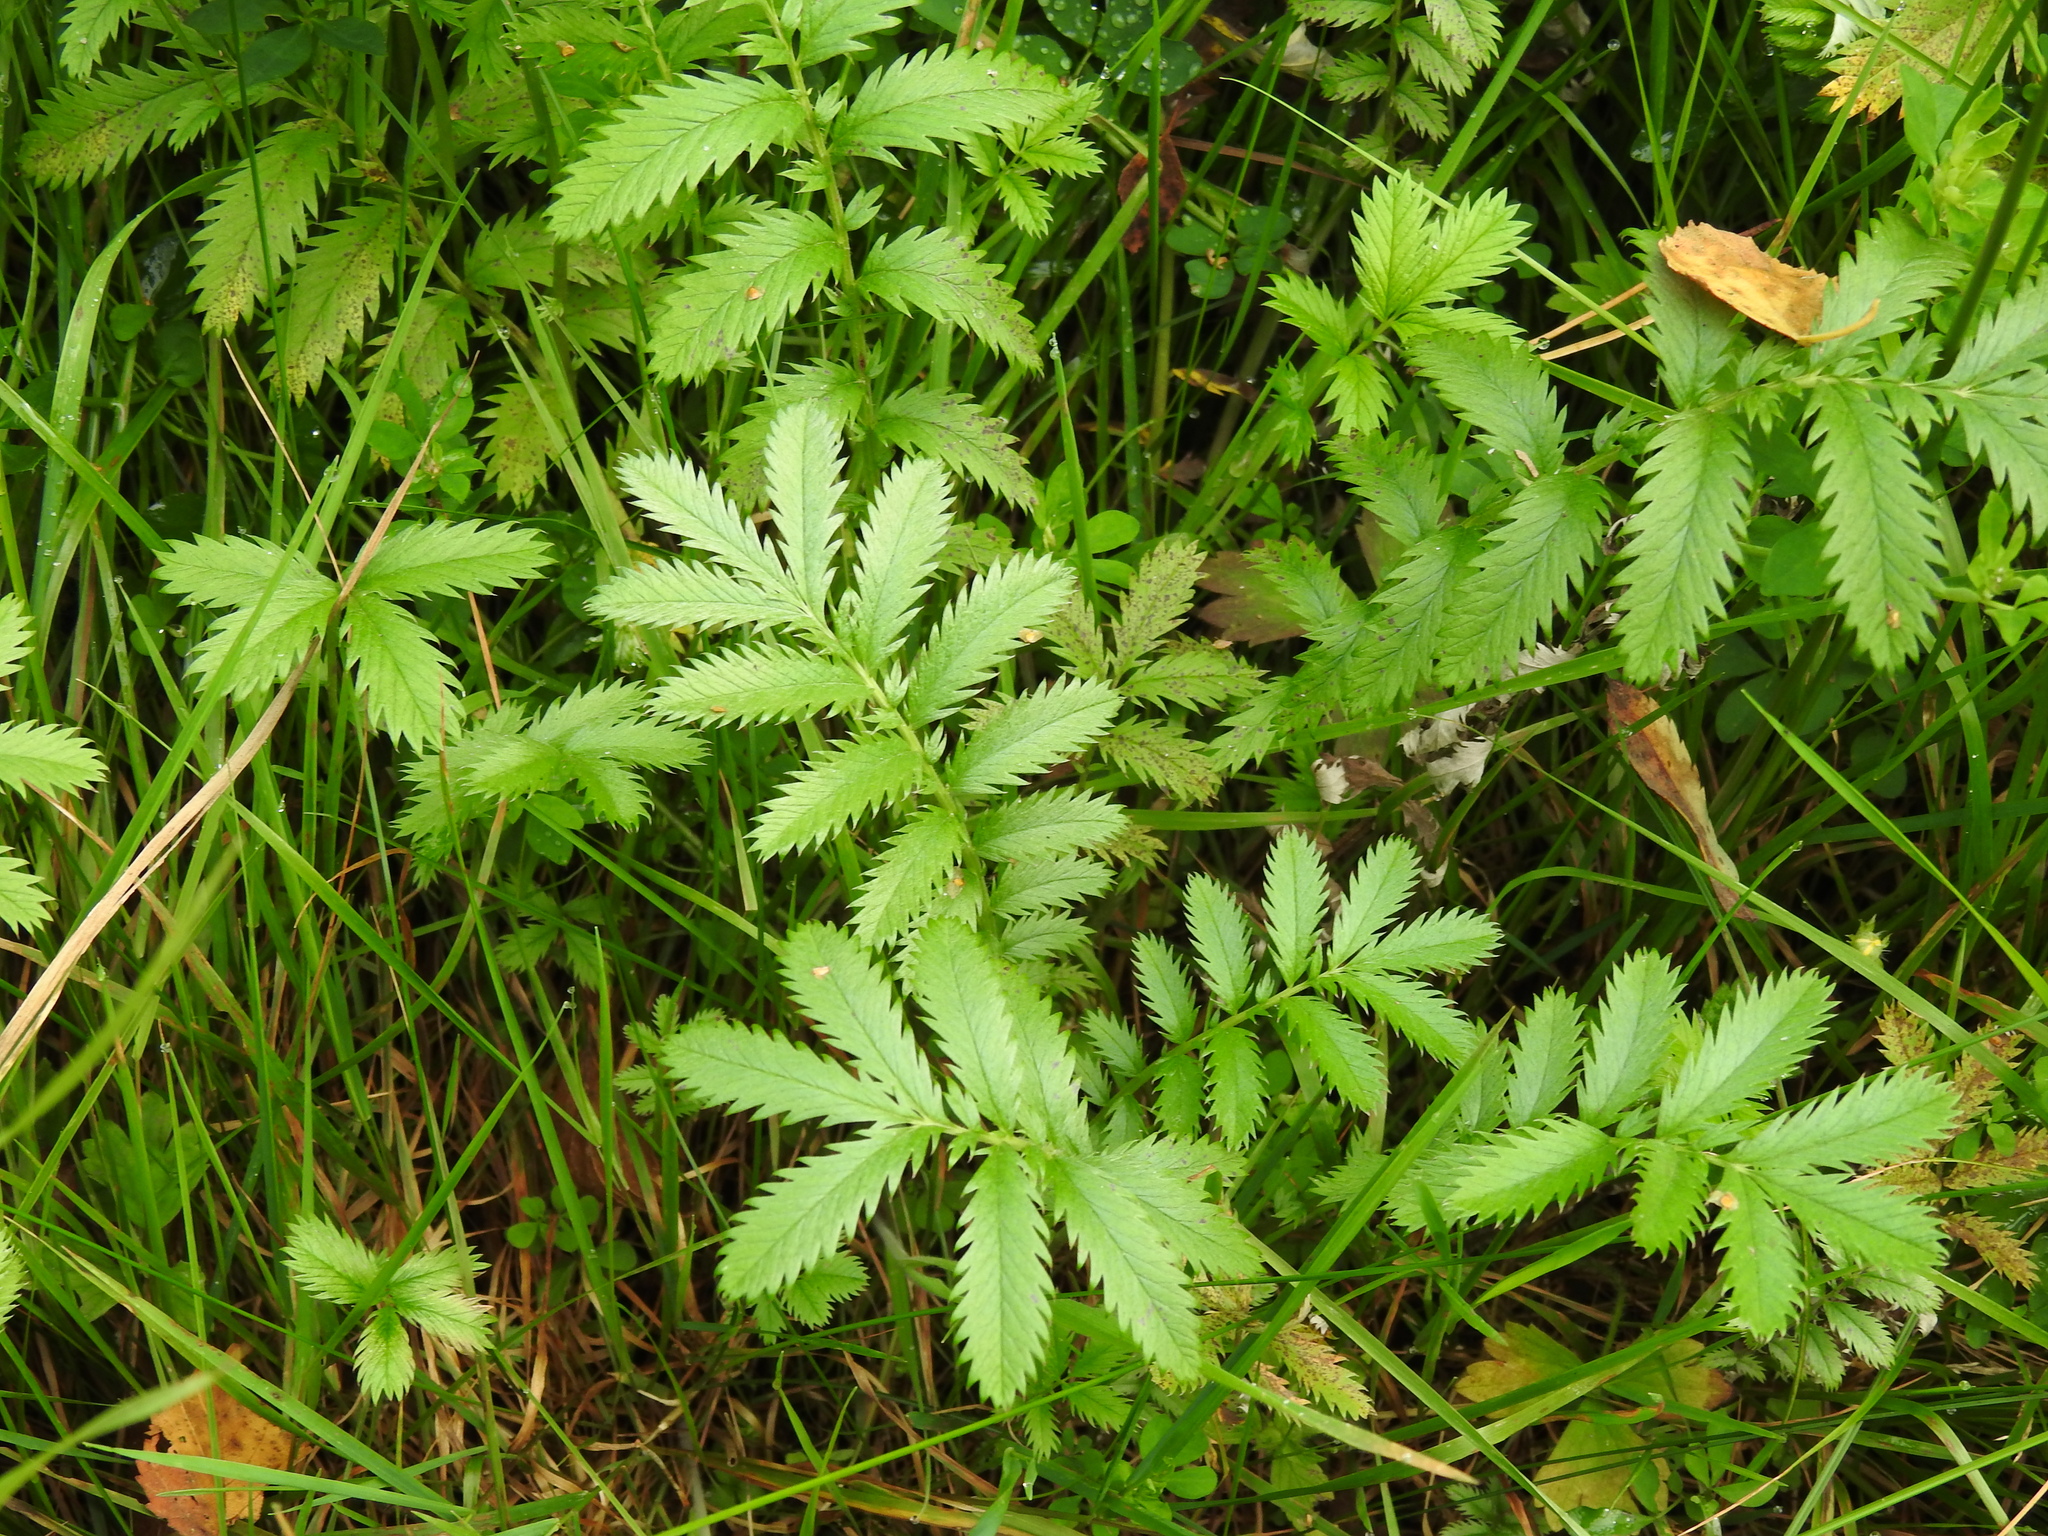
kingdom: Plantae
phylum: Tracheophyta
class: Magnoliopsida
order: Rosales
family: Rosaceae
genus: Argentina
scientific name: Argentina anserina
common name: Common silverweed
